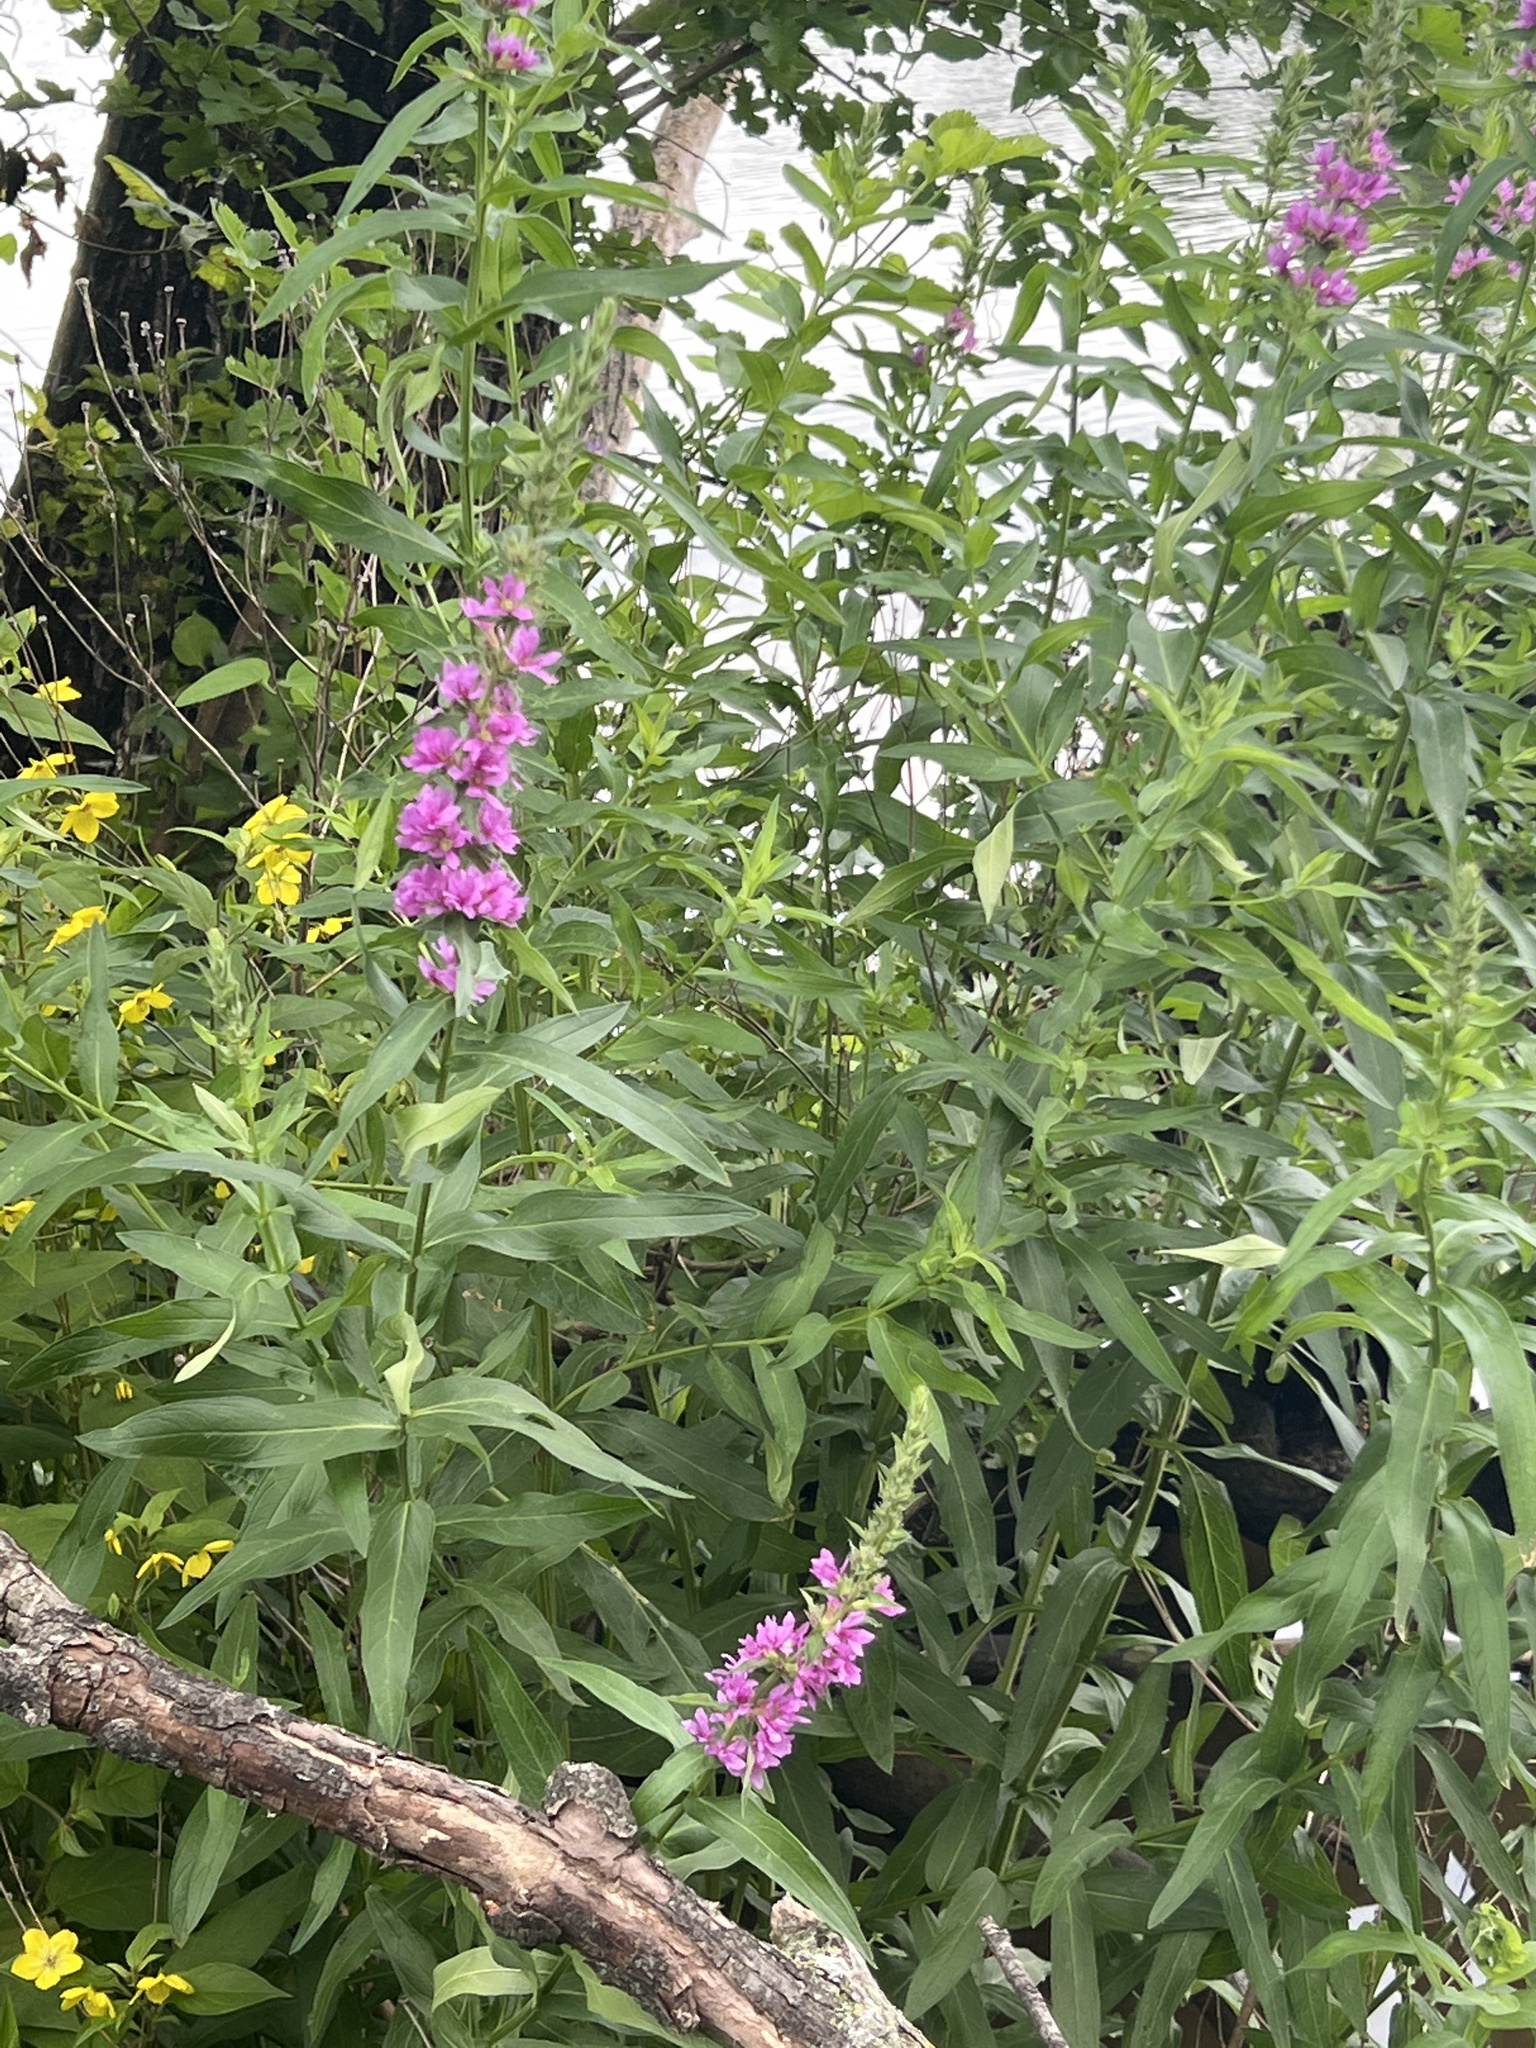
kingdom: Plantae
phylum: Tracheophyta
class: Magnoliopsida
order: Myrtales
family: Lythraceae
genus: Lythrum
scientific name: Lythrum salicaria
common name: Purple loosestrife
